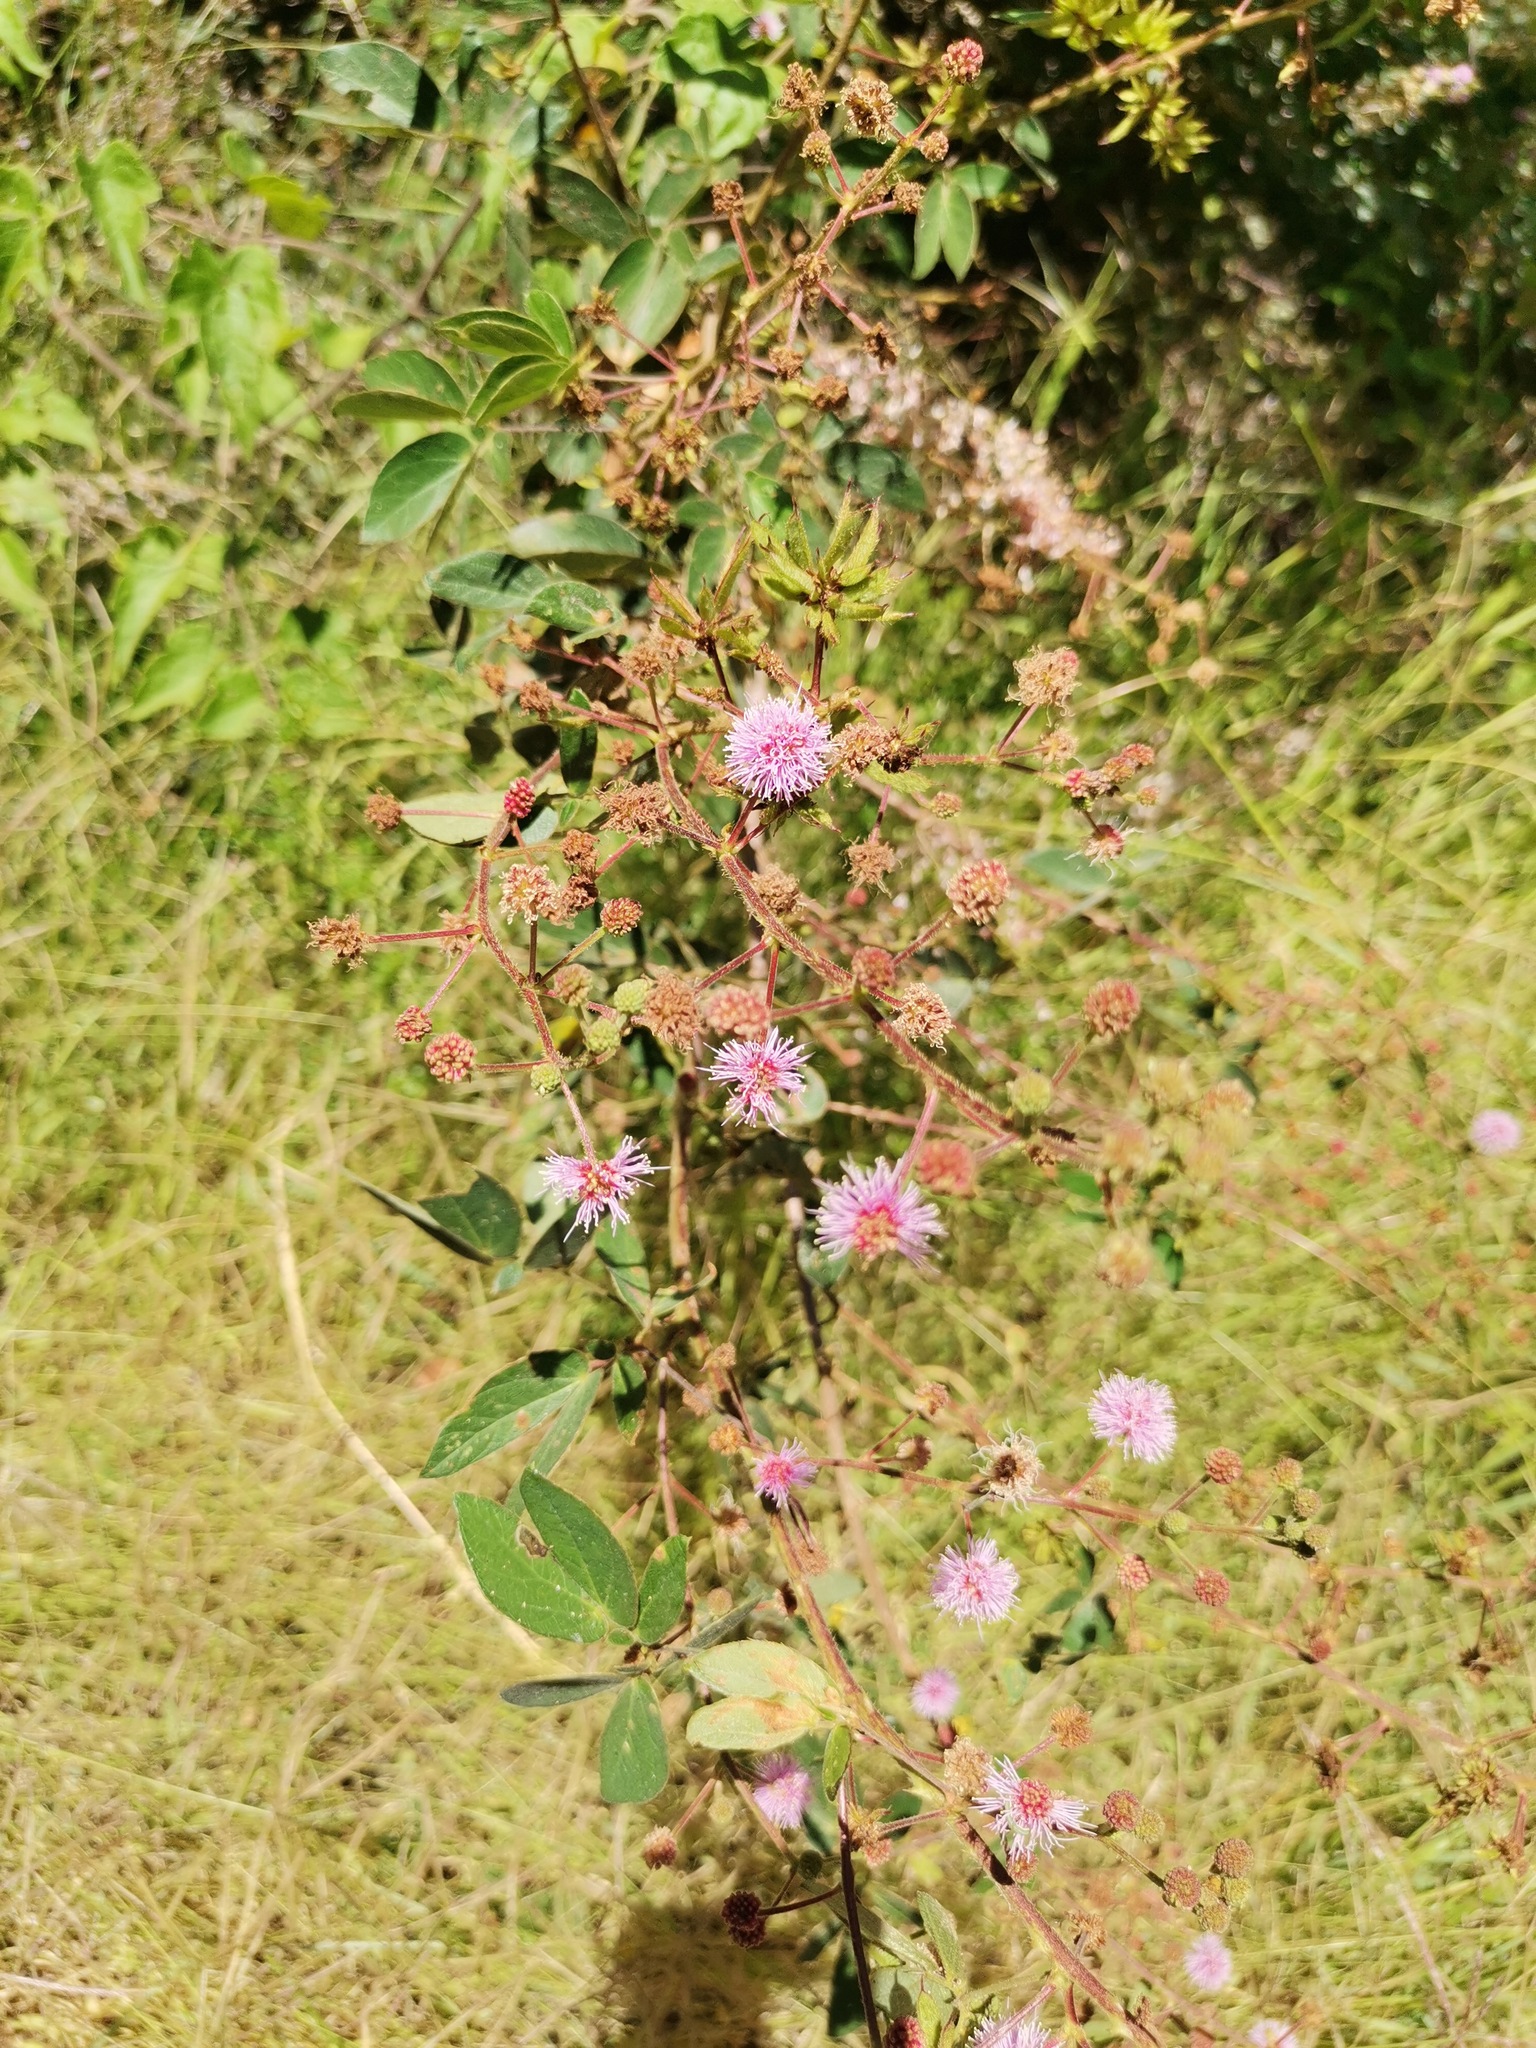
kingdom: Plantae
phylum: Tracheophyta
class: Magnoliopsida
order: Fabales
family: Fabaceae
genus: Mimosa
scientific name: Mimosa albida
